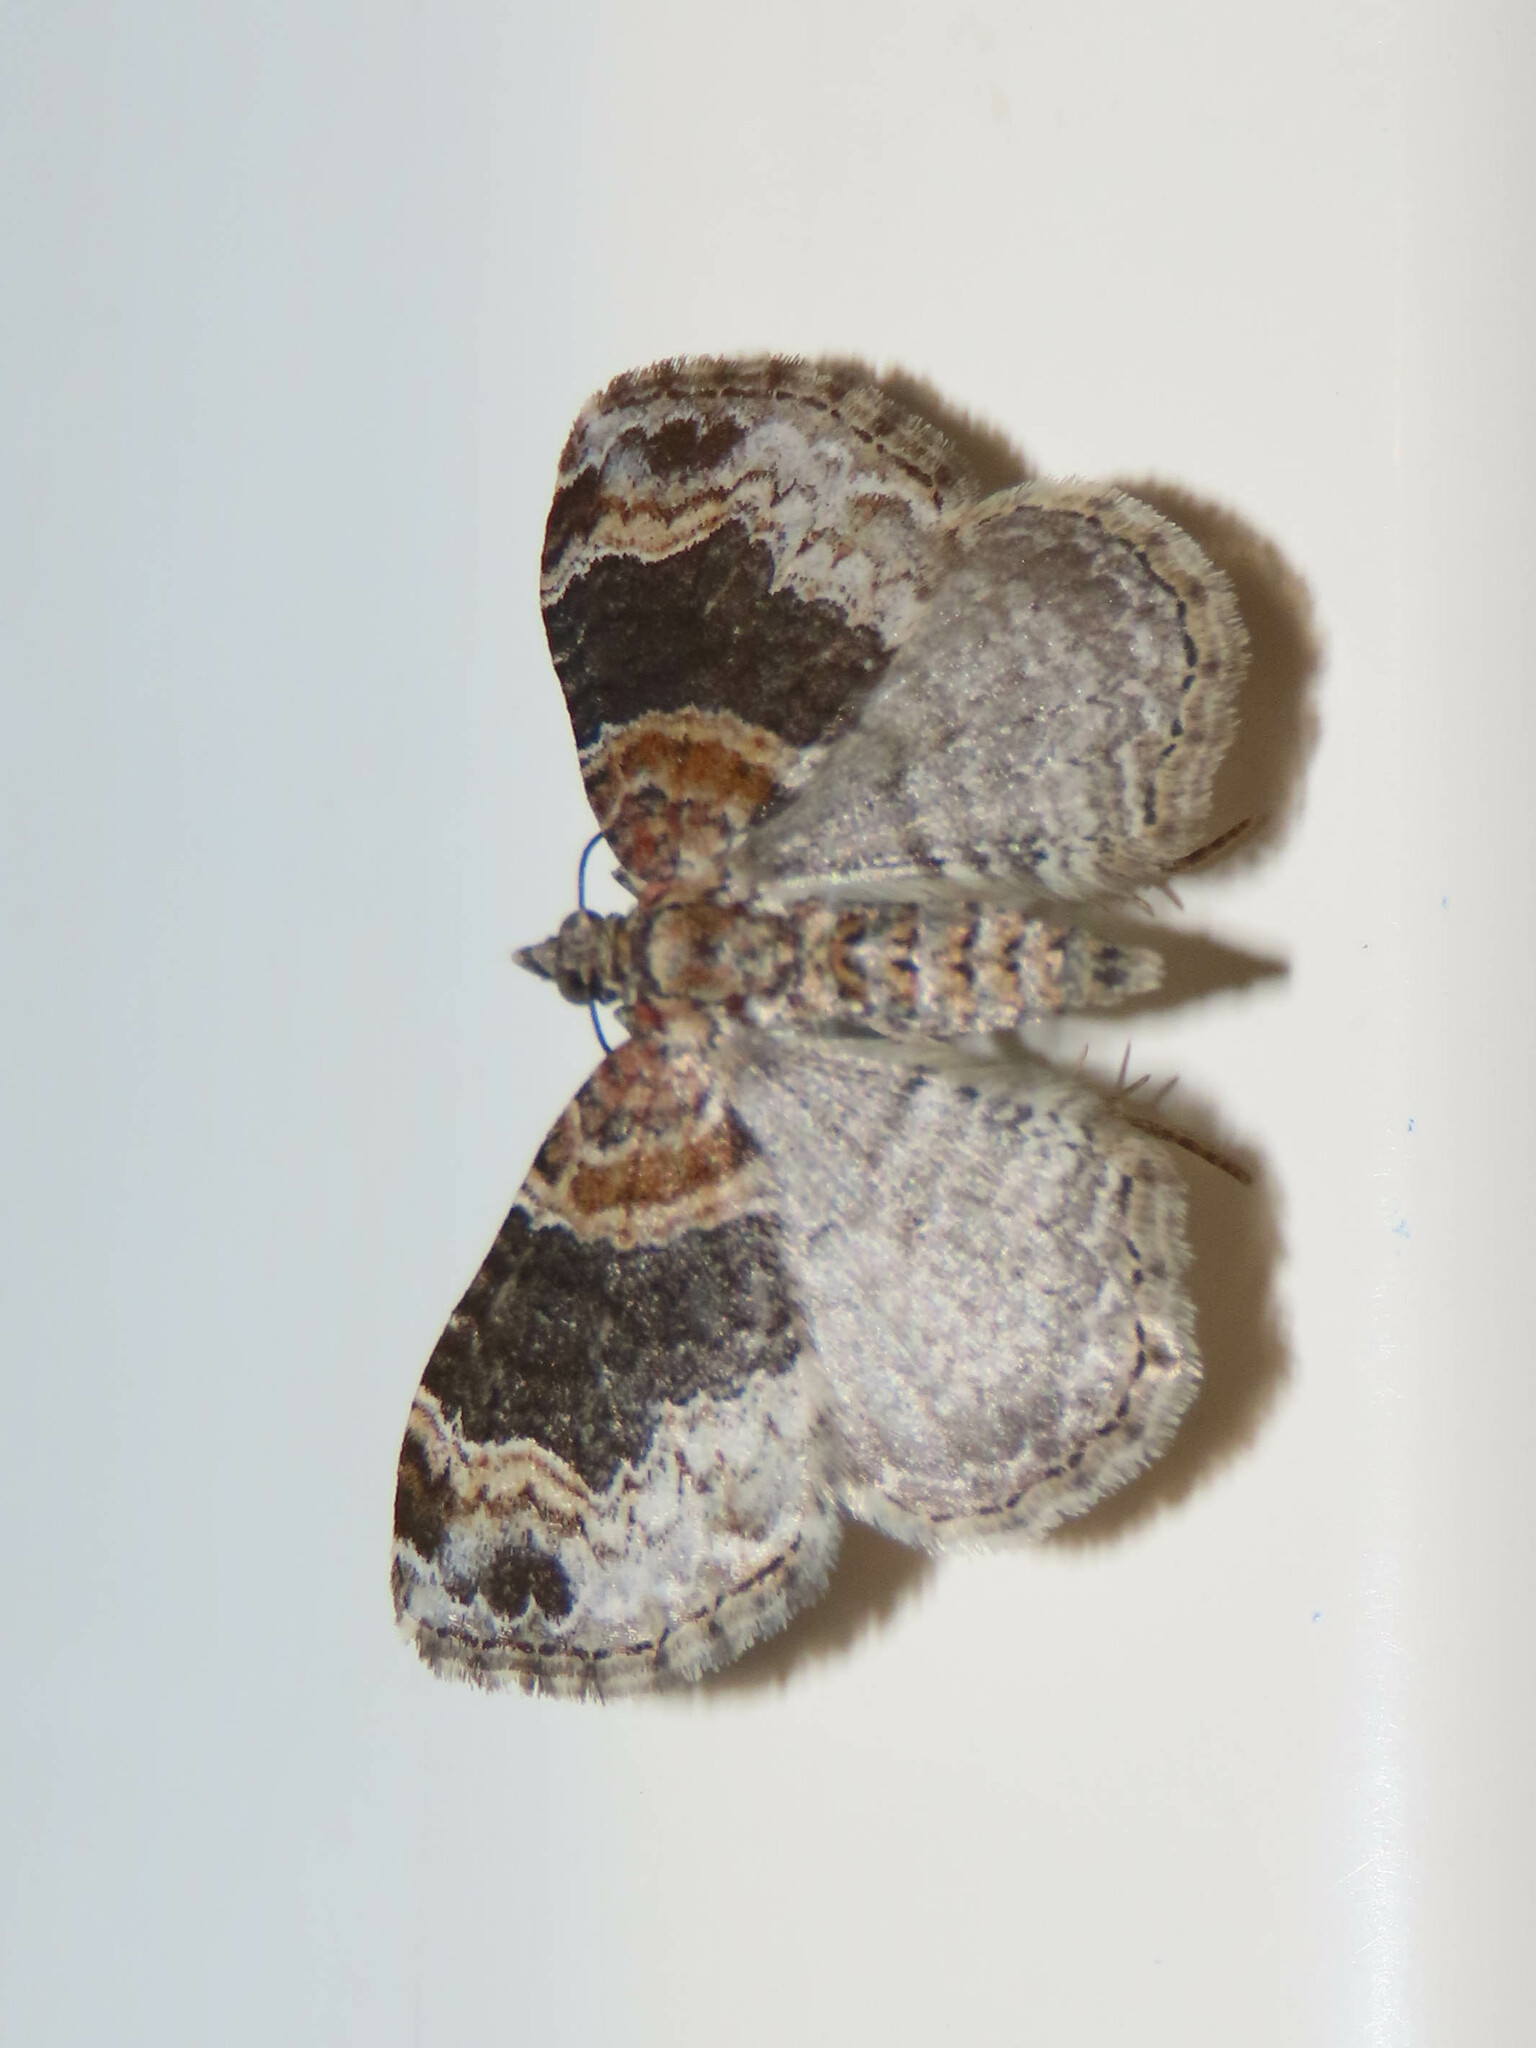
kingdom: Animalia
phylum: Arthropoda
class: Insecta
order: Lepidoptera
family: Geometridae
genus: Xanthorhoe
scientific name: Xanthorhoe ferrugata
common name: Dark-barred twin-spot carpet
